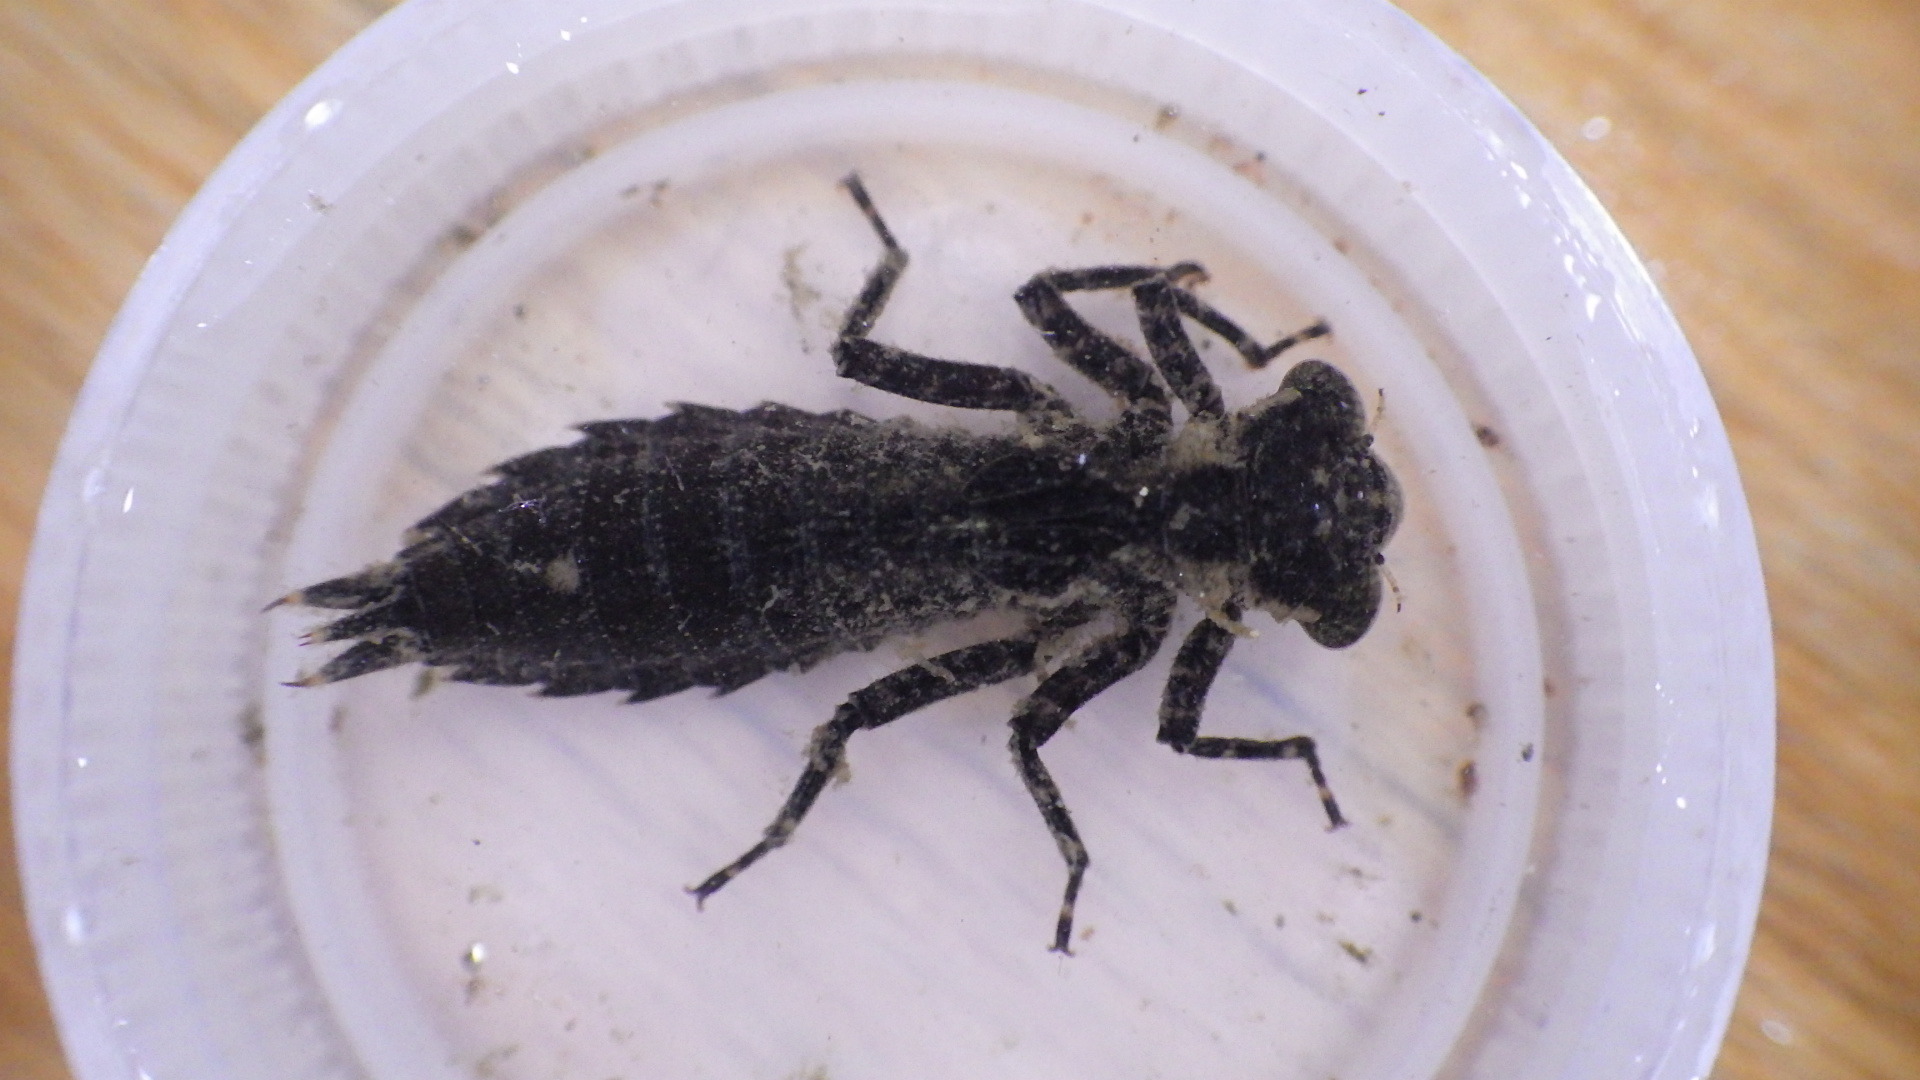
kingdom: Animalia
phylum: Arthropoda
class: Insecta
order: Odonata
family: Aeshnidae
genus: Boyeria
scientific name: Boyeria vinosa
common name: Fawn darner
